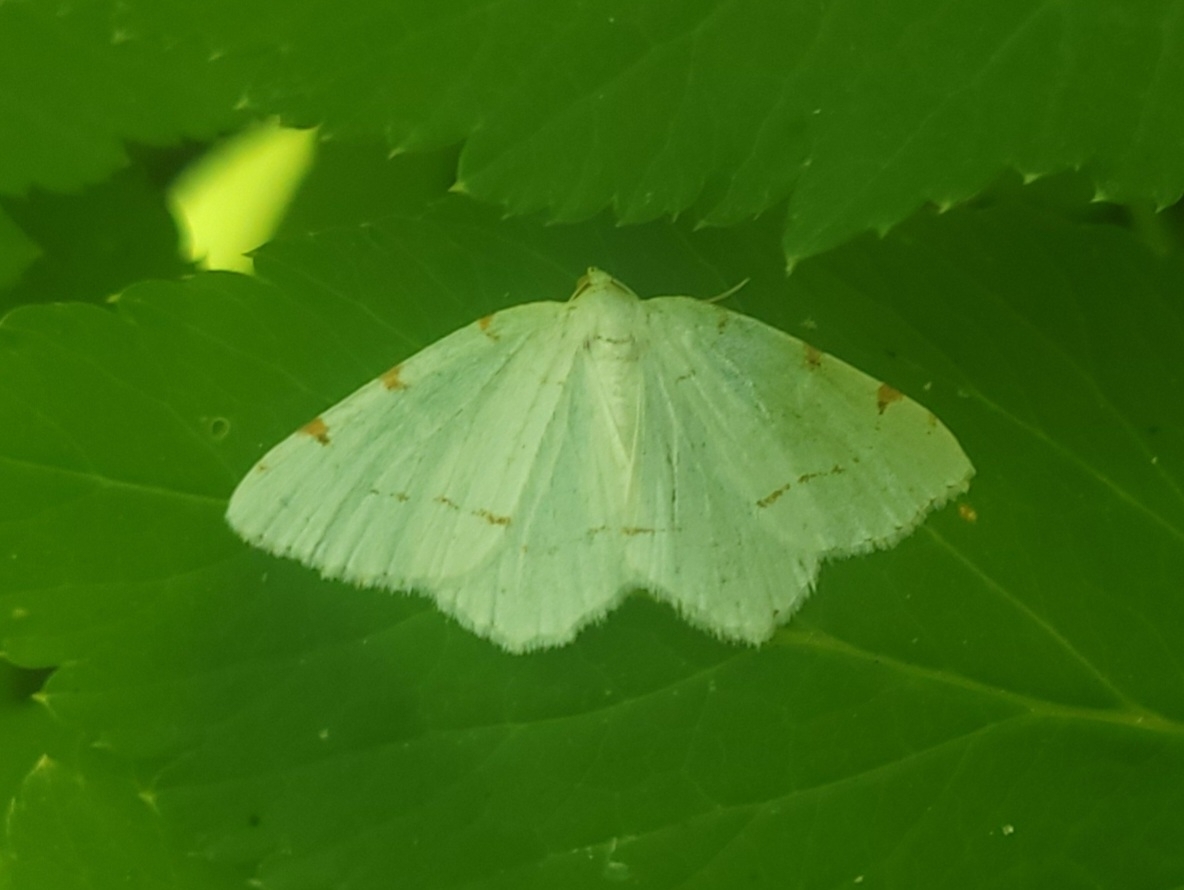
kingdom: Animalia
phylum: Arthropoda
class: Insecta
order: Lepidoptera
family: Geometridae
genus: Macaria
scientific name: Macaria pustularia
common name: Lesser maple spanworm moth
